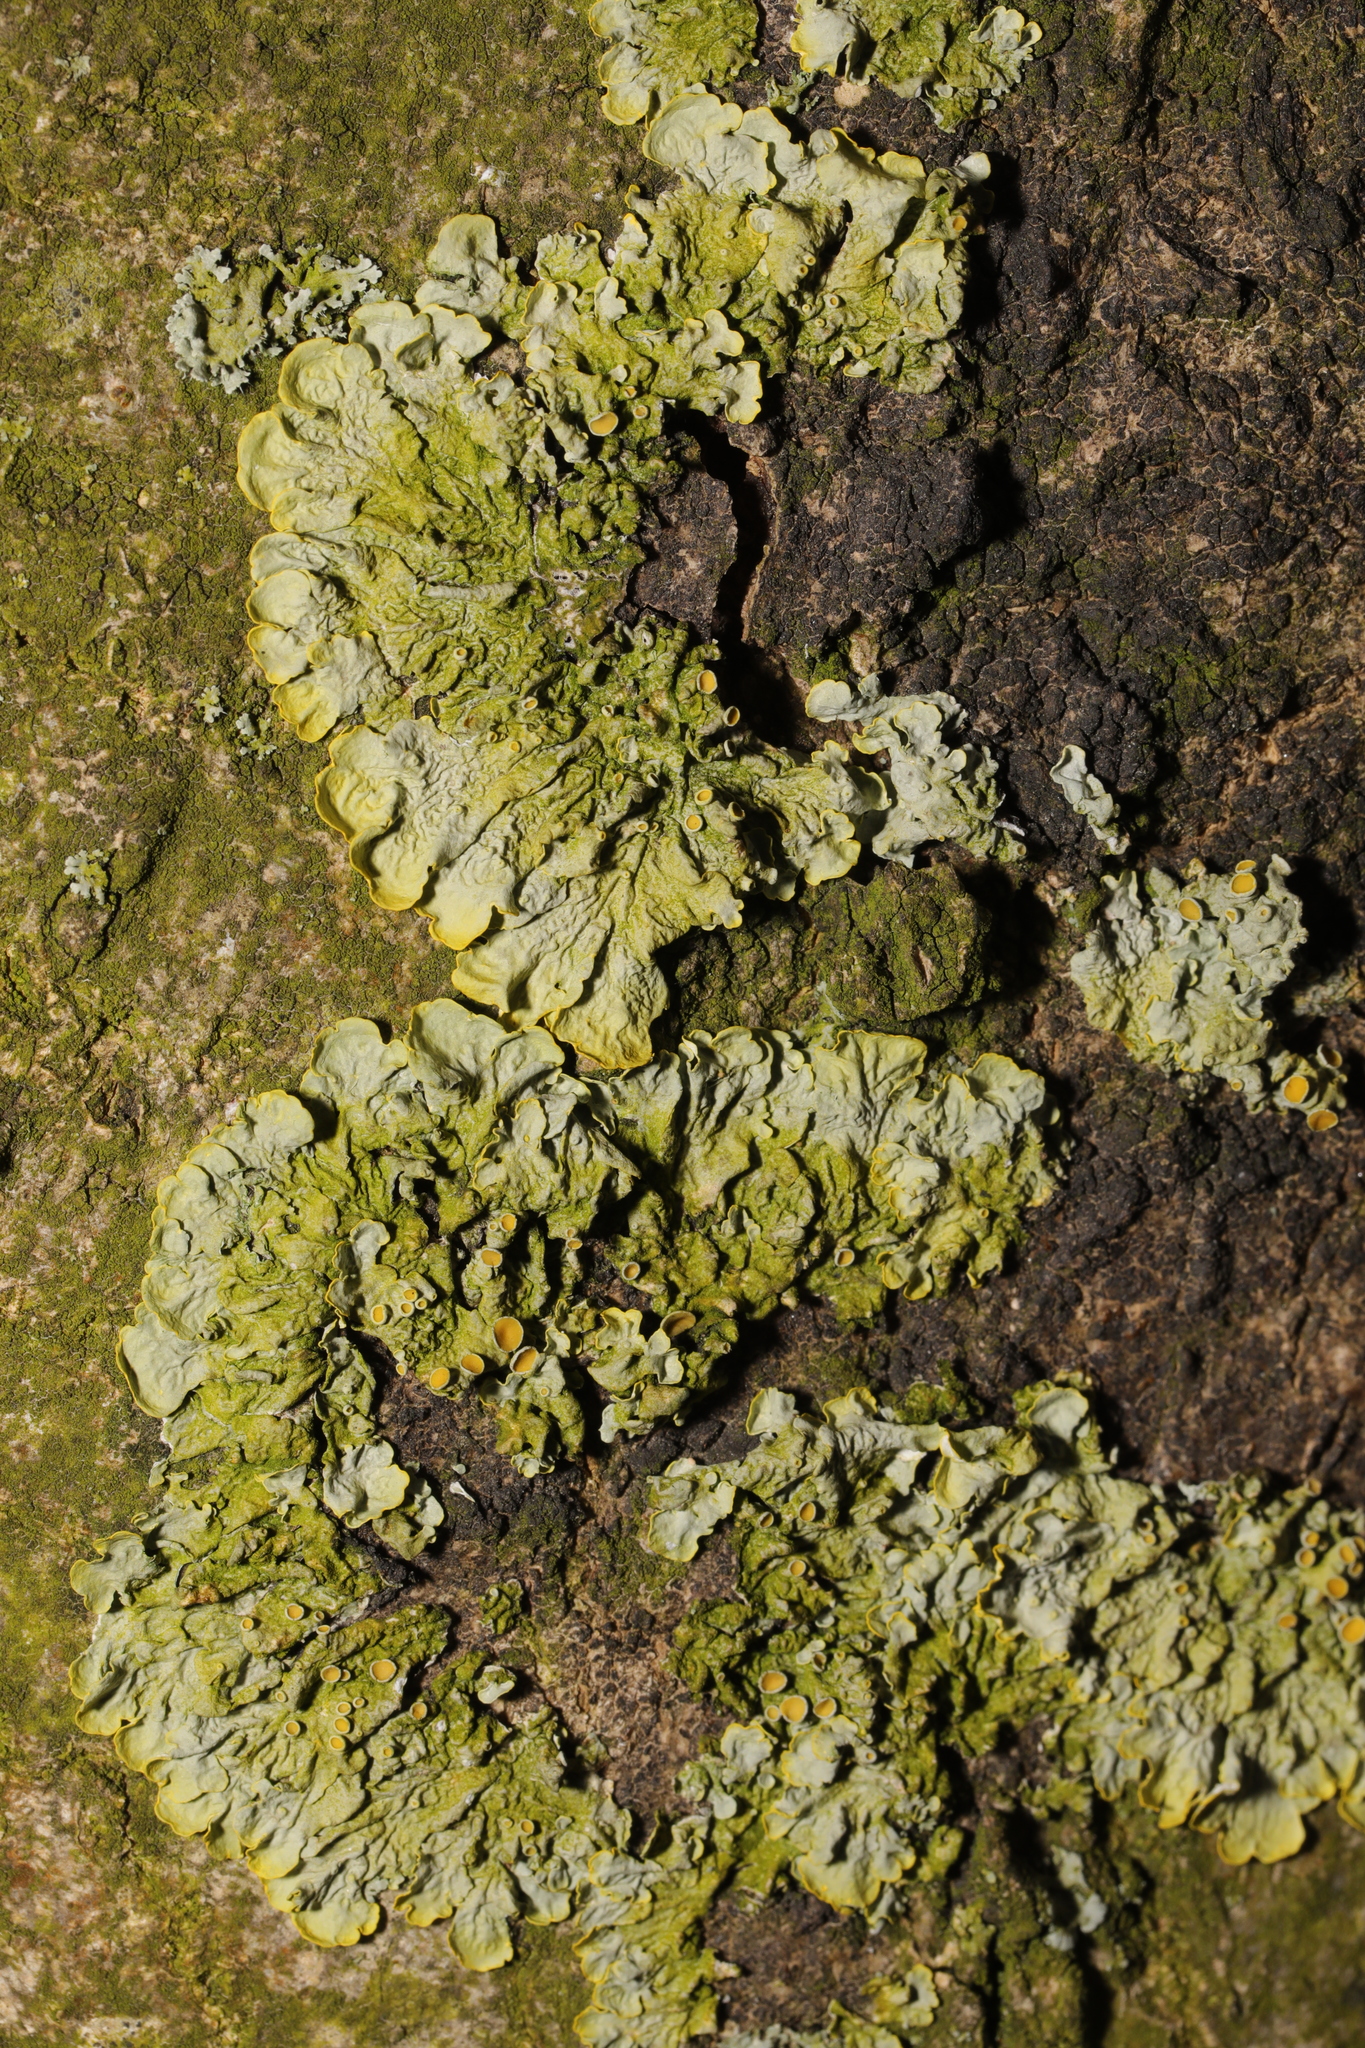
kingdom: Fungi
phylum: Ascomycota
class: Lecanoromycetes
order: Teloschistales
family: Teloschistaceae
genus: Xanthoria
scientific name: Xanthoria parietina
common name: Common orange lichen
